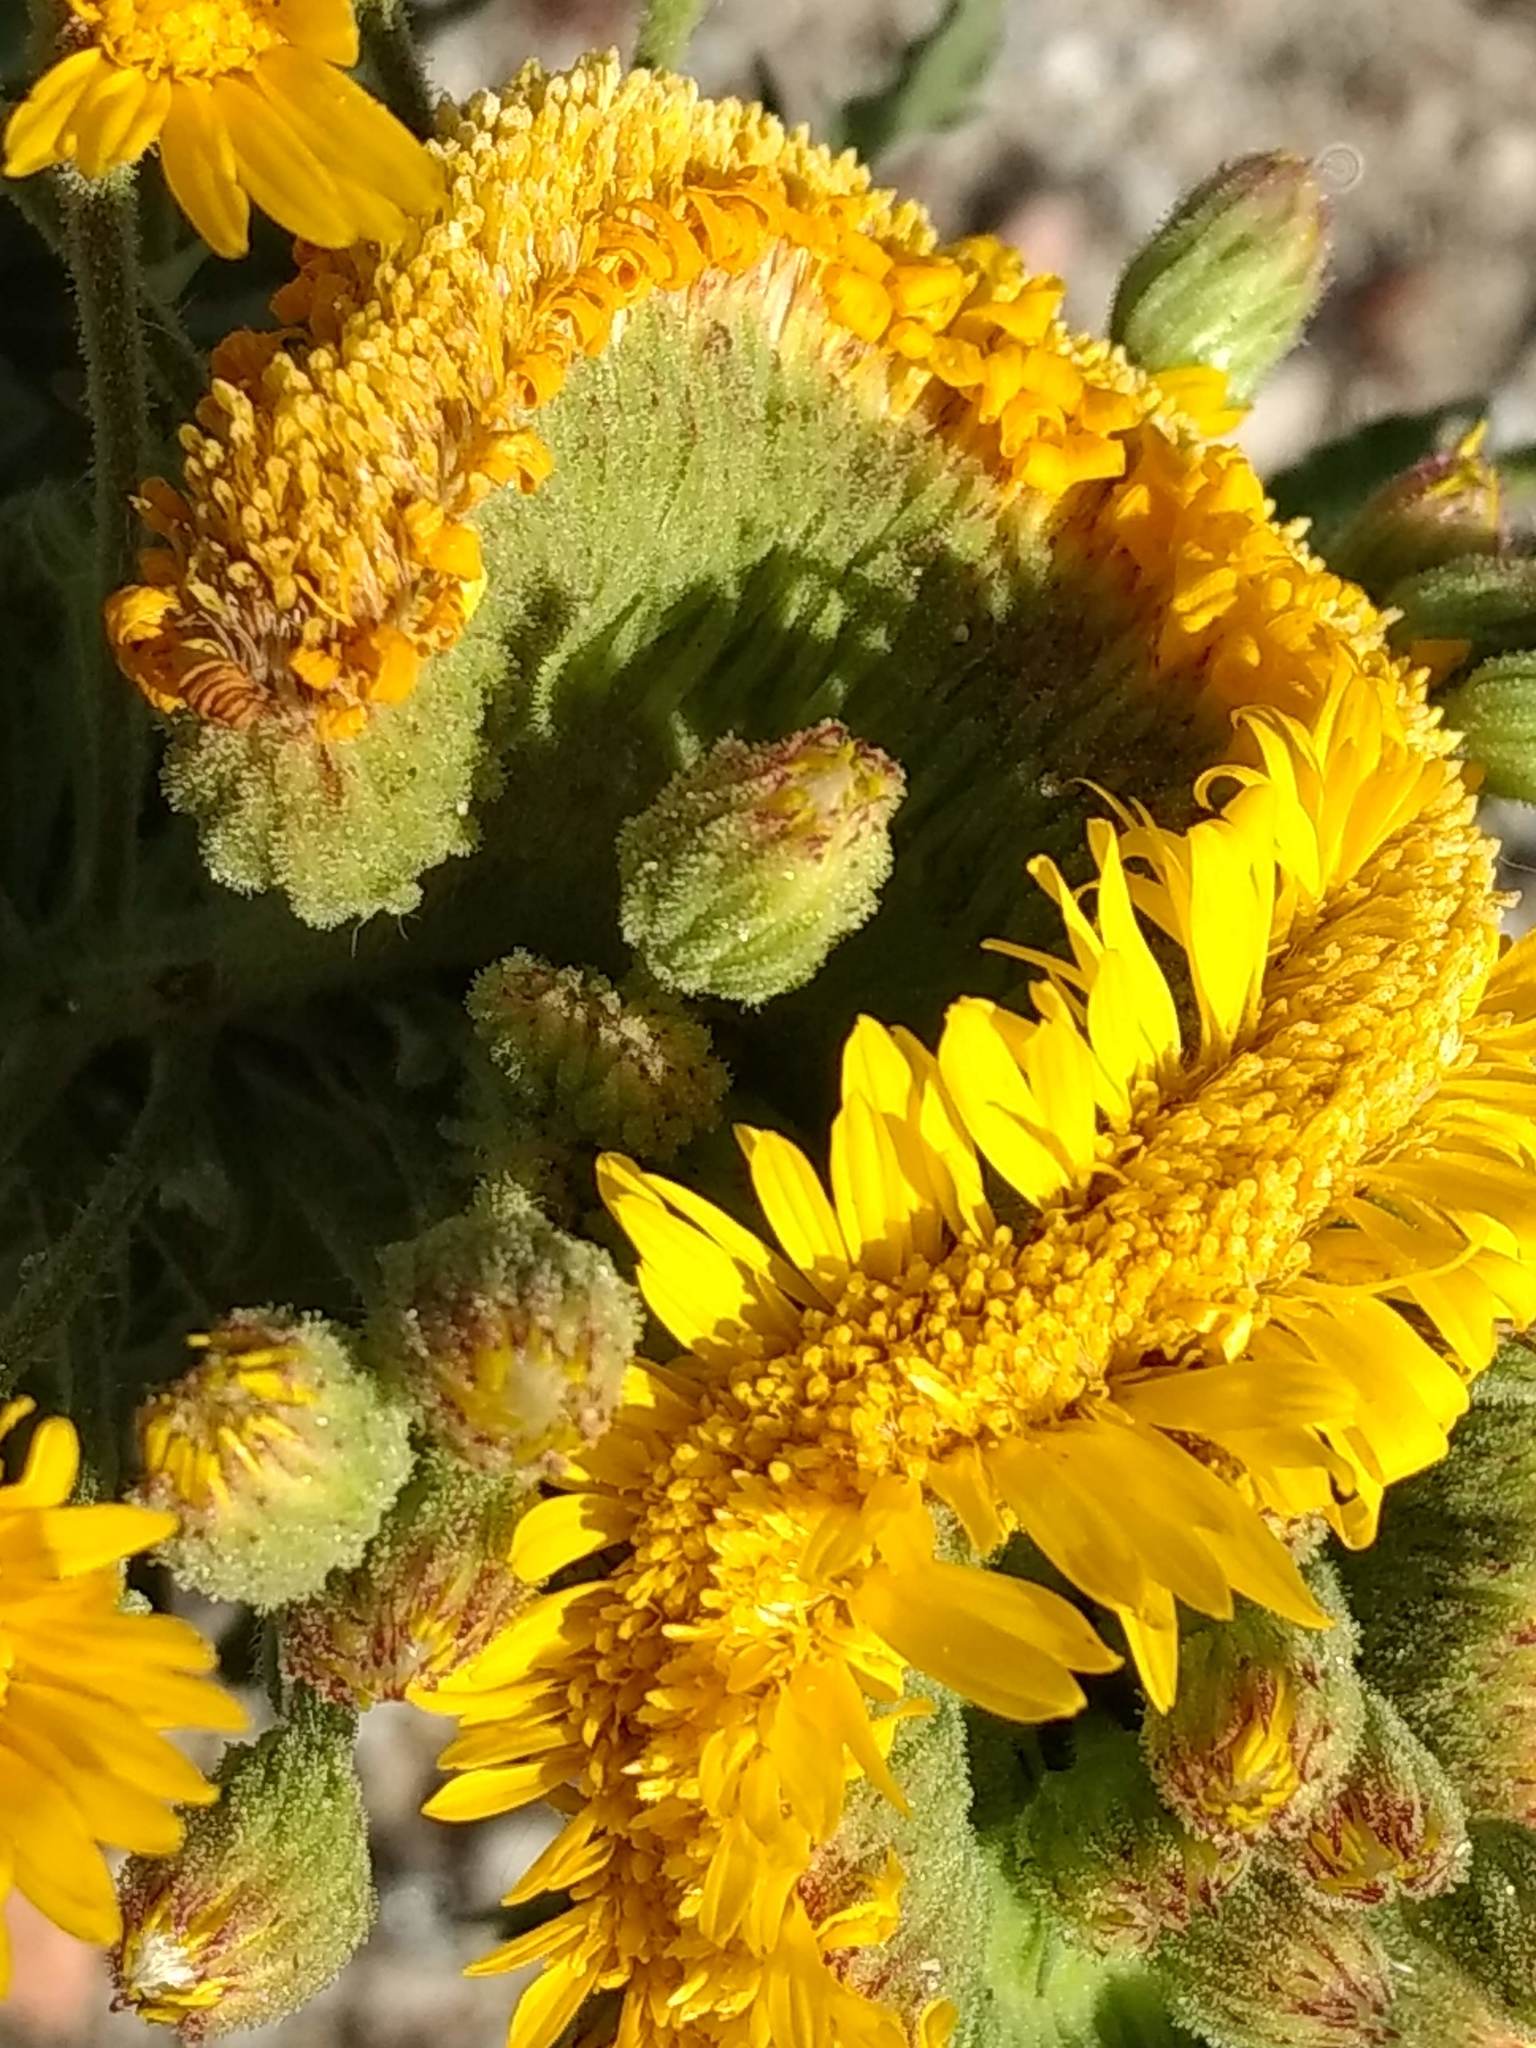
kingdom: Plantae
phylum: Tracheophyta
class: Magnoliopsida
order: Asterales
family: Asteraceae
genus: Heterotheca
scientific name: Heterotheca grandiflora
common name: Telegraphweed
